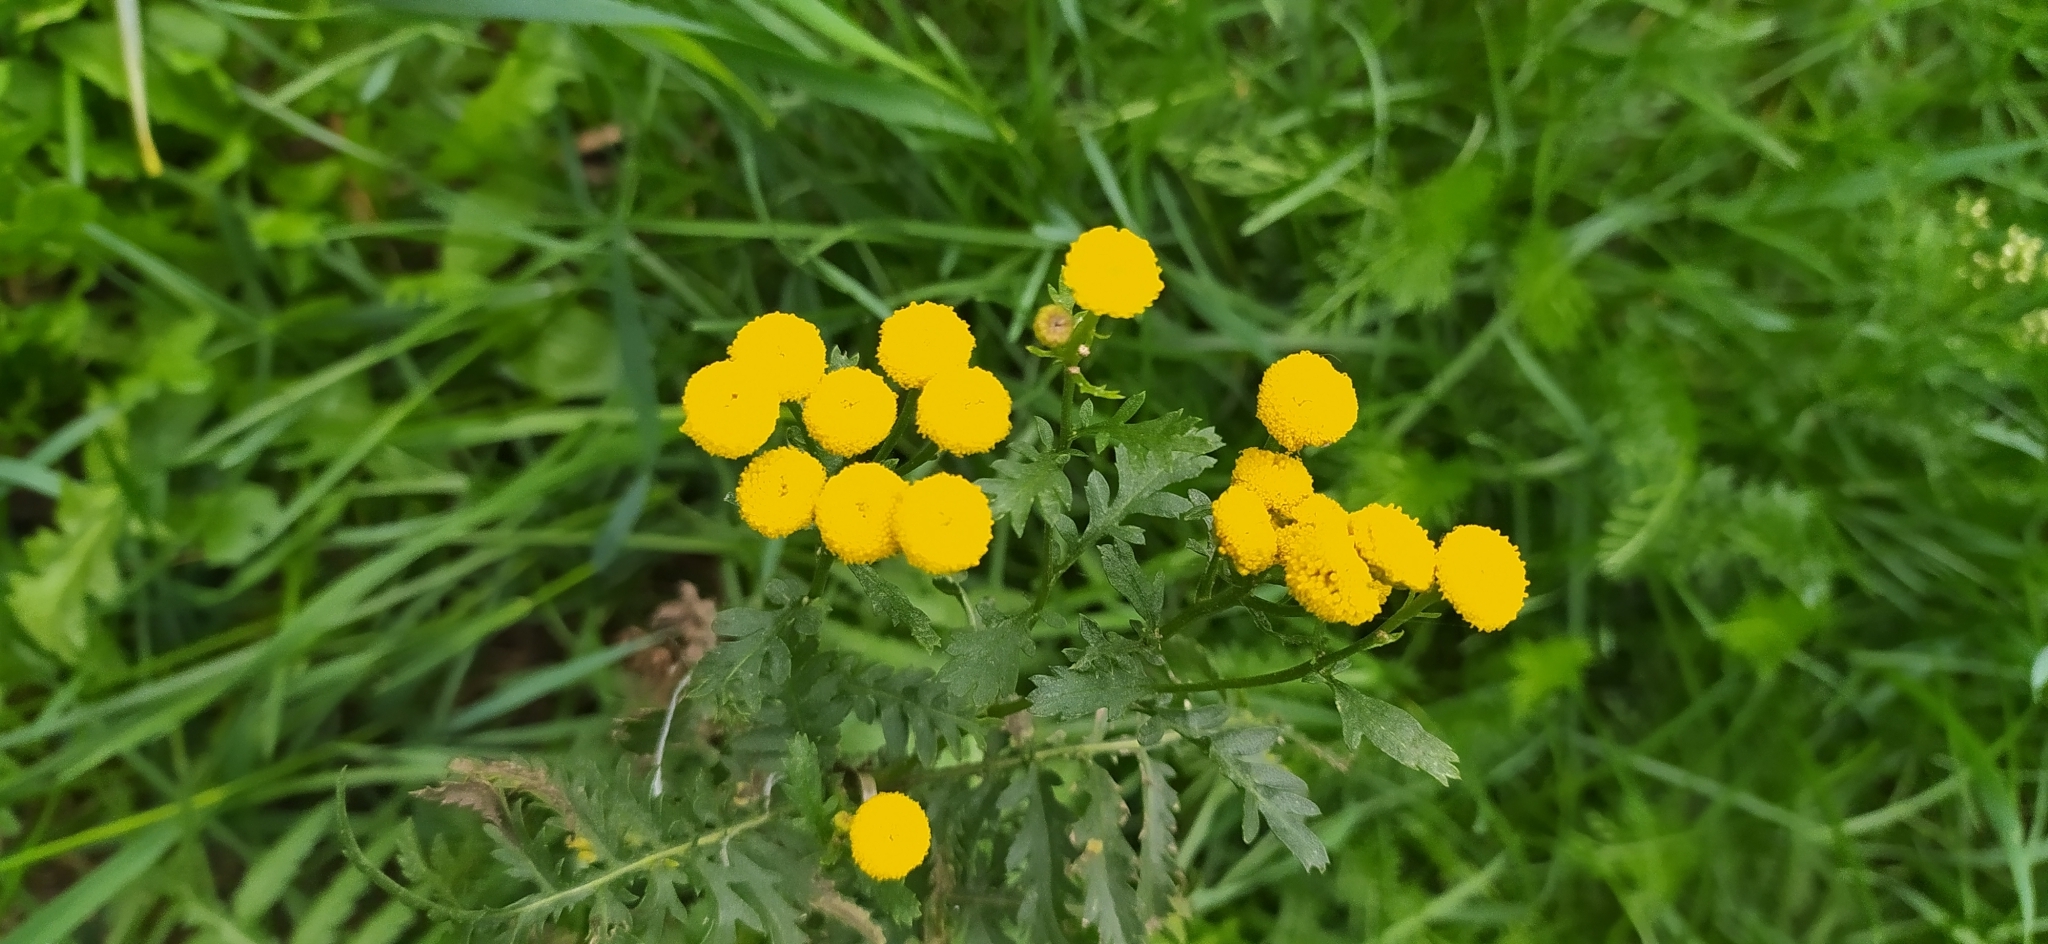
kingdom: Plantae
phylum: Tracheophyta
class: Magnoliopsida
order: Asterales
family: Asteraceae
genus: Tanacetum
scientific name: Tanacetum vulgare
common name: Common tansy
